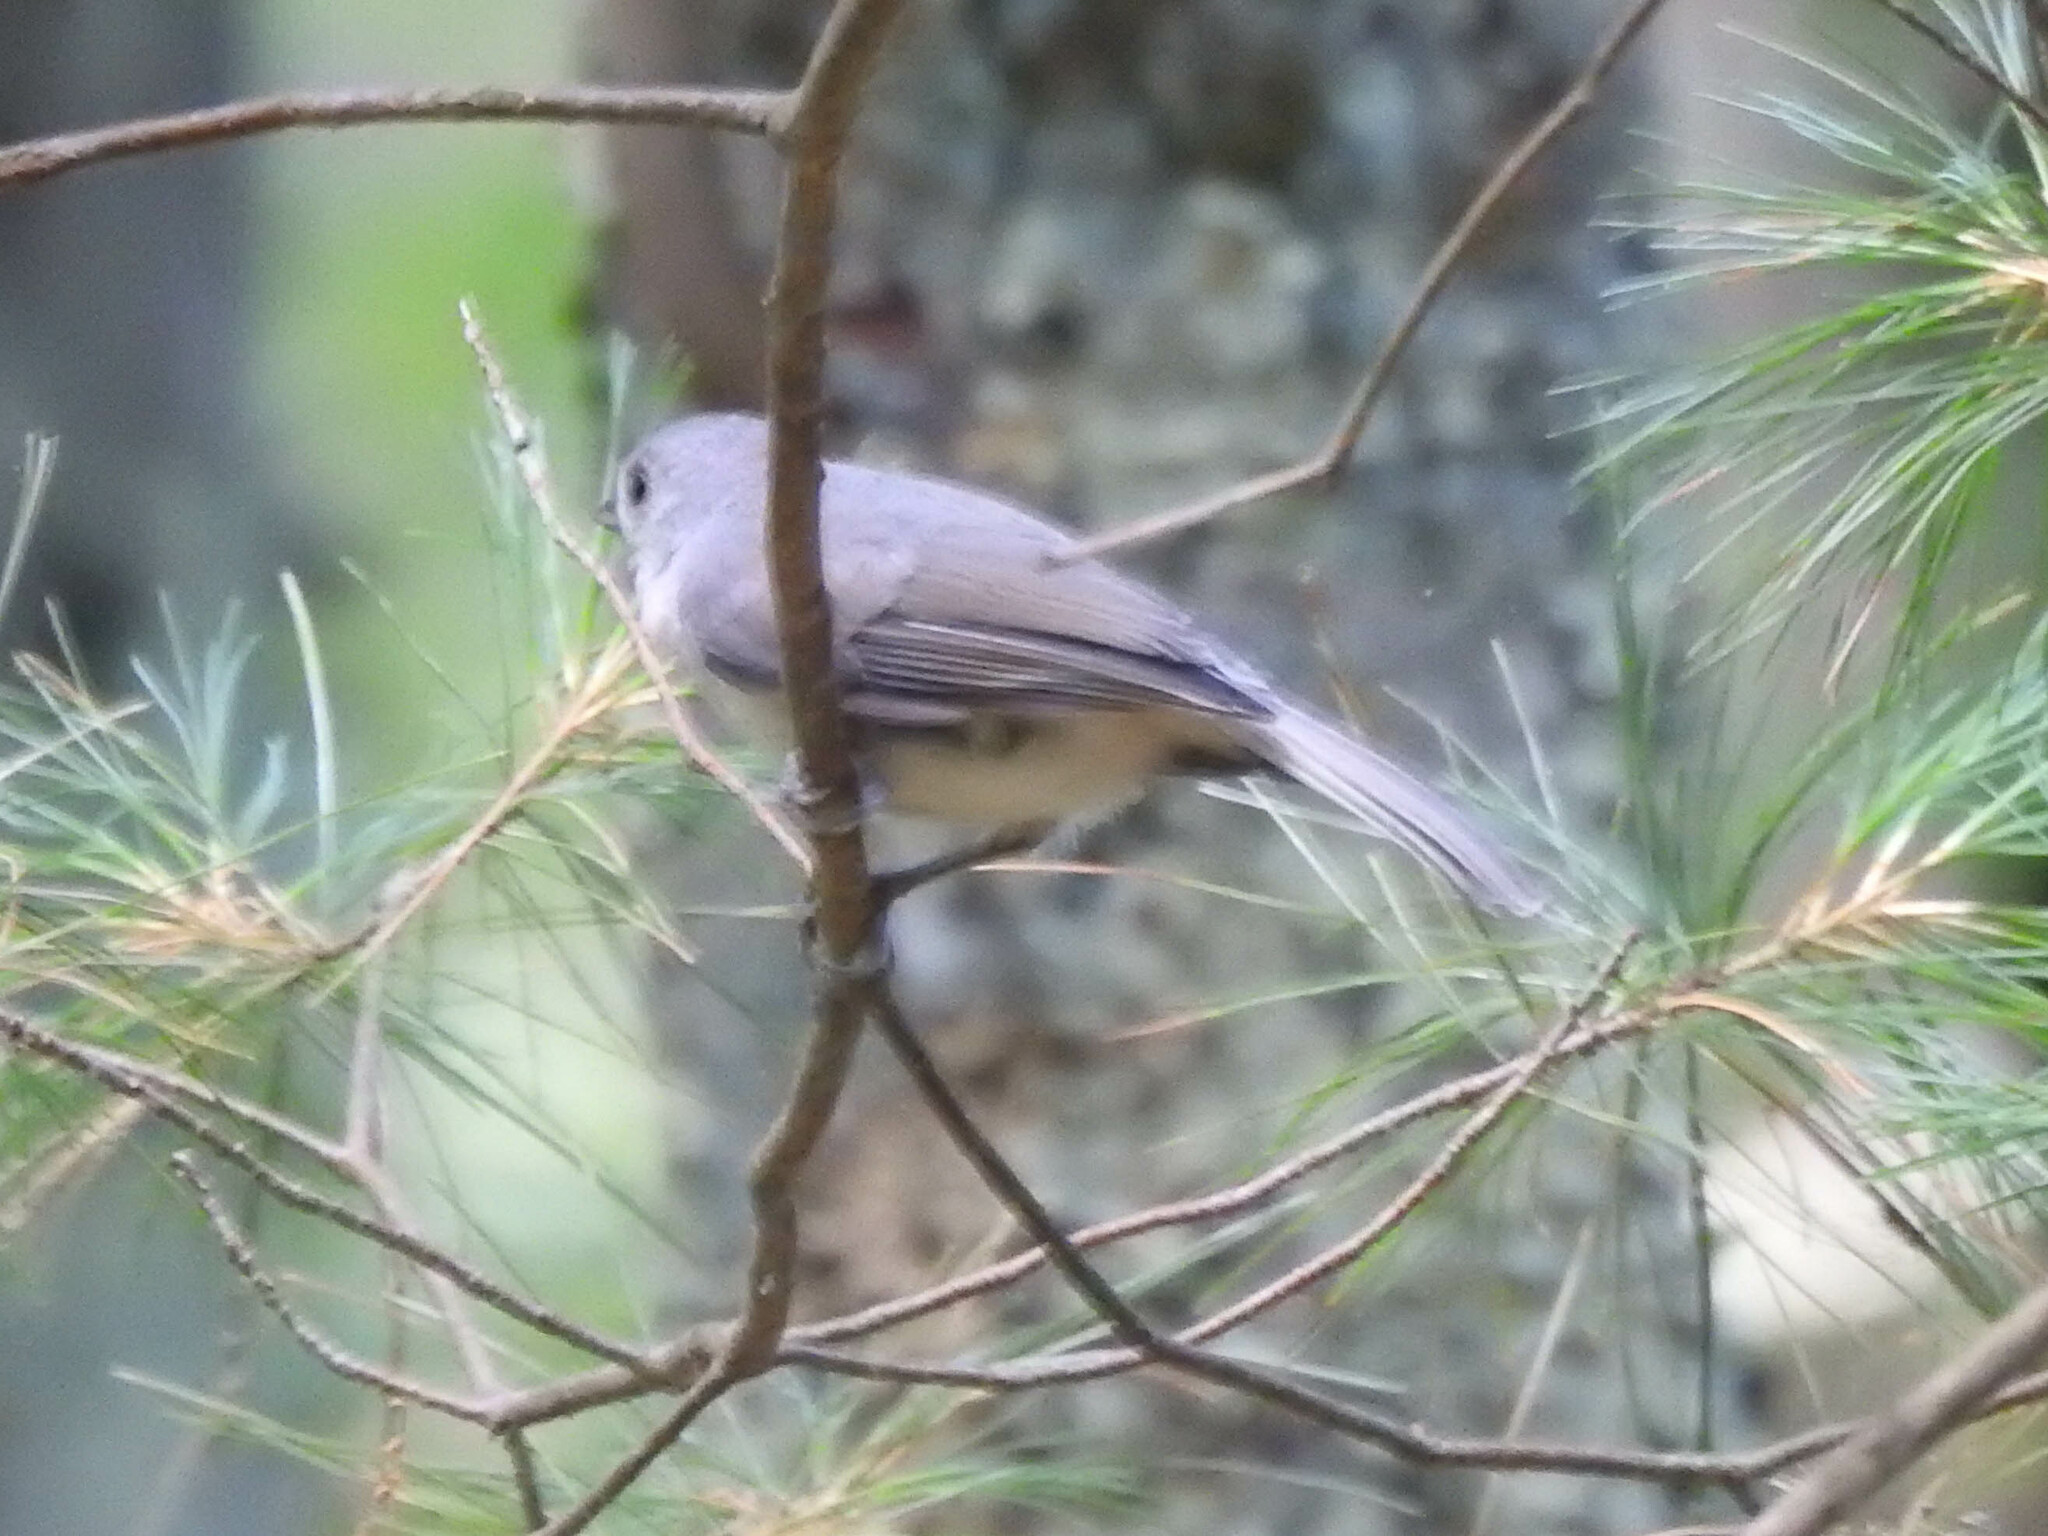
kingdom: Animalia
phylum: Chordata
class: Aves
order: Passeriformes
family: Paridae
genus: Baeolophus
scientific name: Baeolophus bicolor
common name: Tufted titmouse
